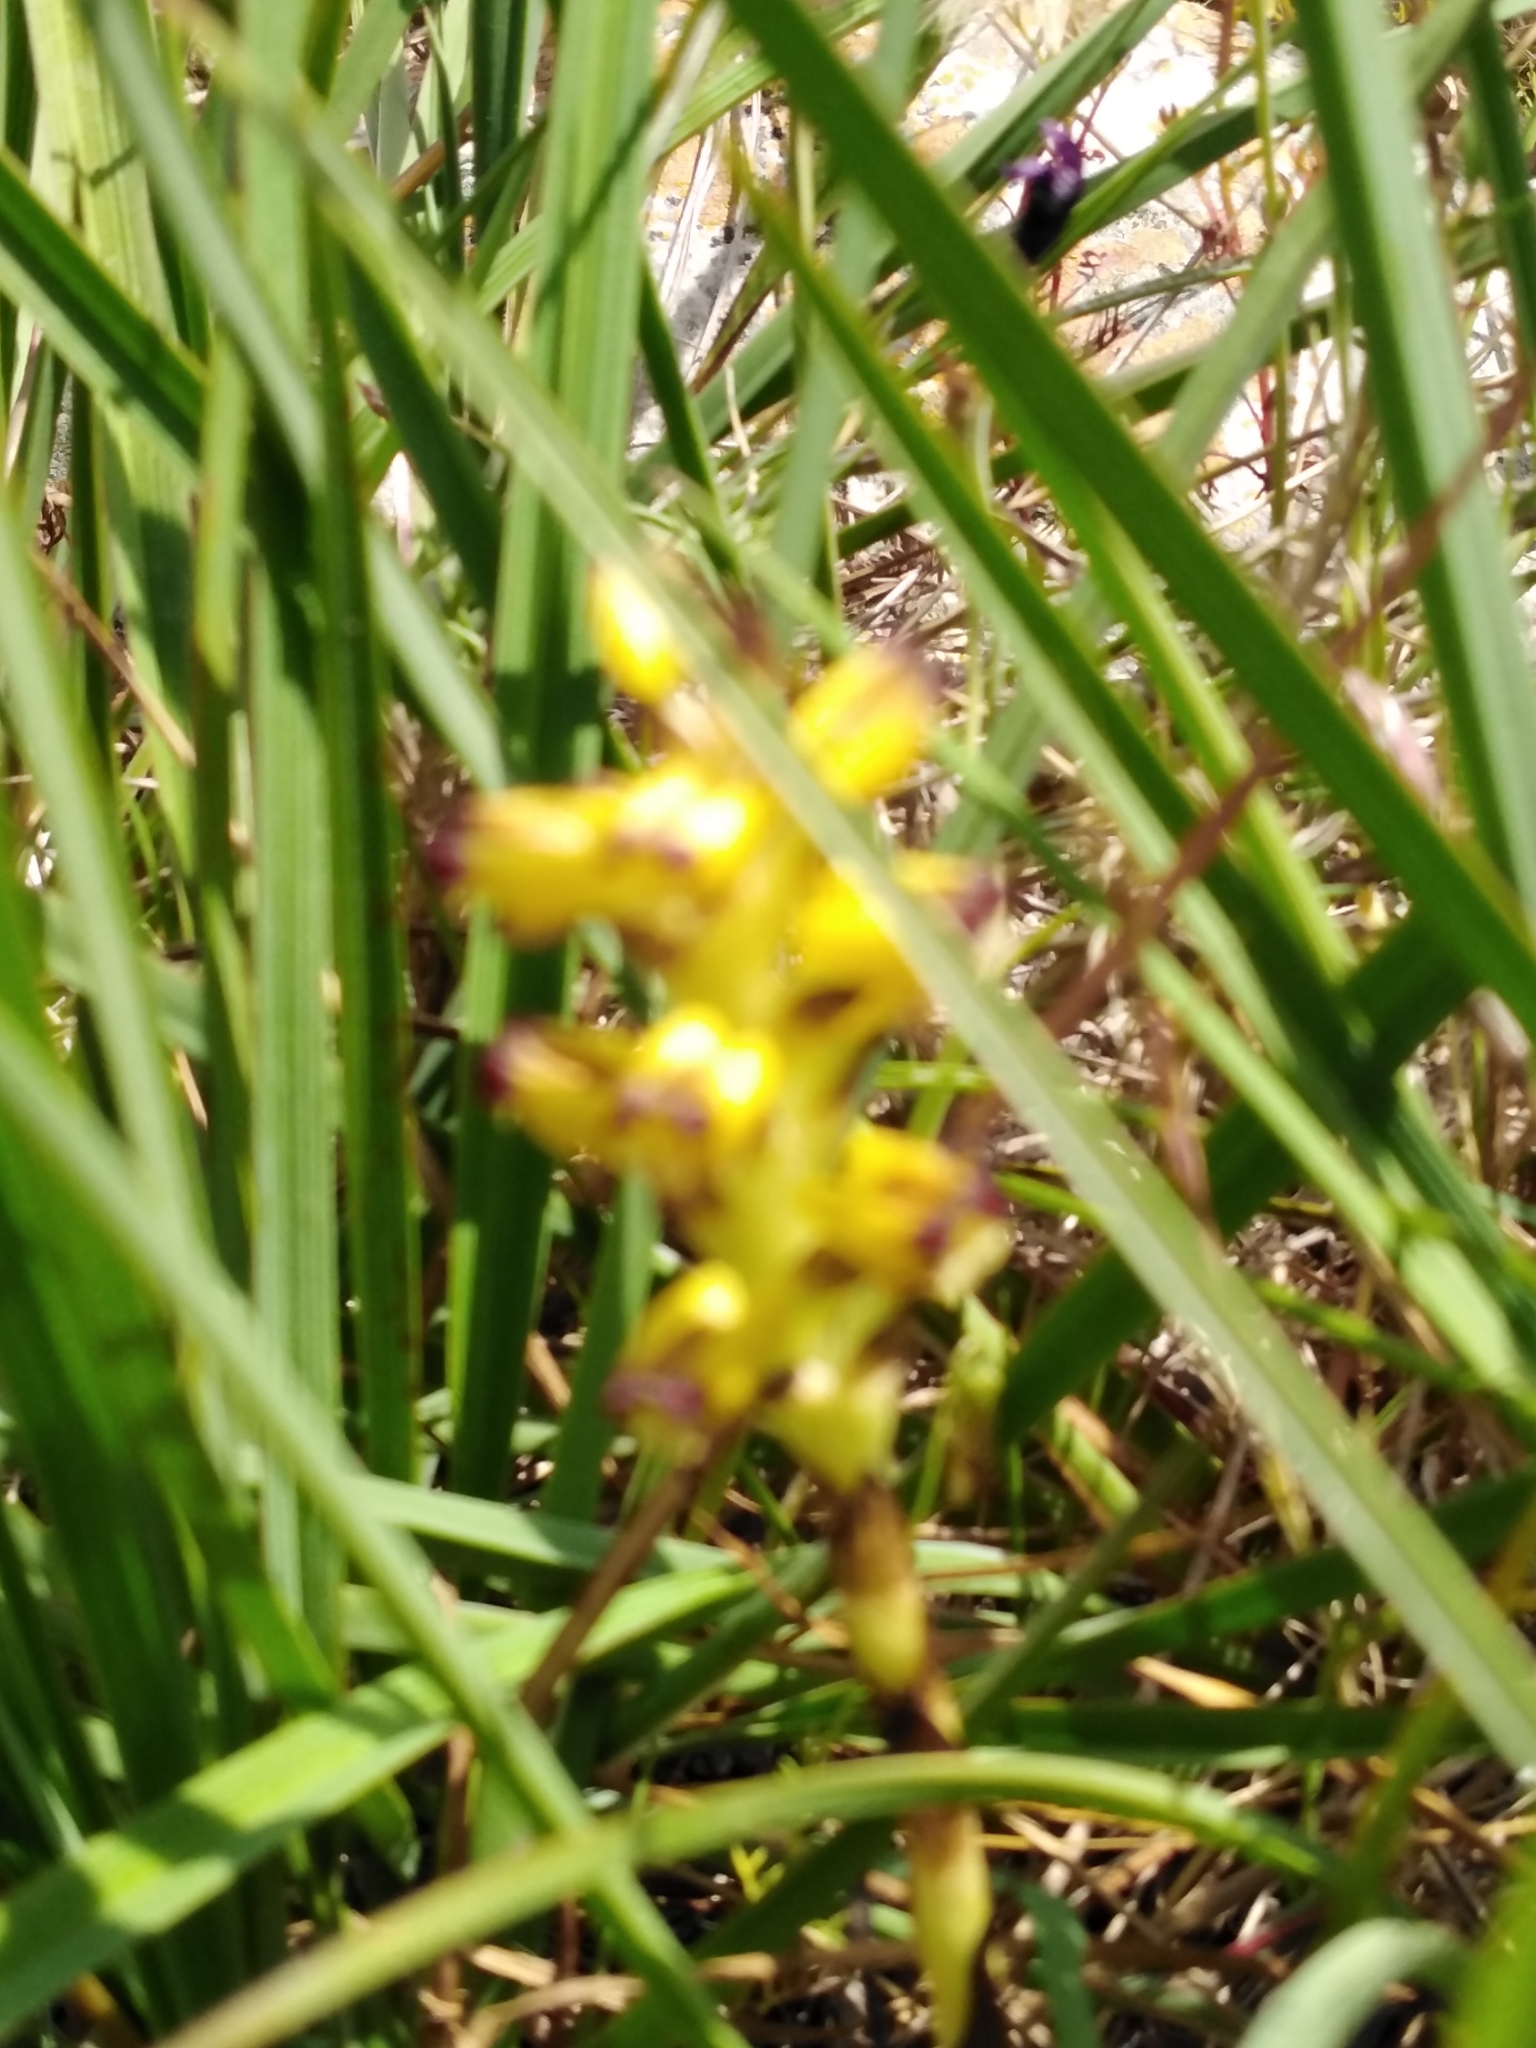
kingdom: Plantae
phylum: Tracheophyta
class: Liliopsida
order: Asparagales
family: Orchidaceae
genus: Corycium
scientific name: Corycium orobanchoides
